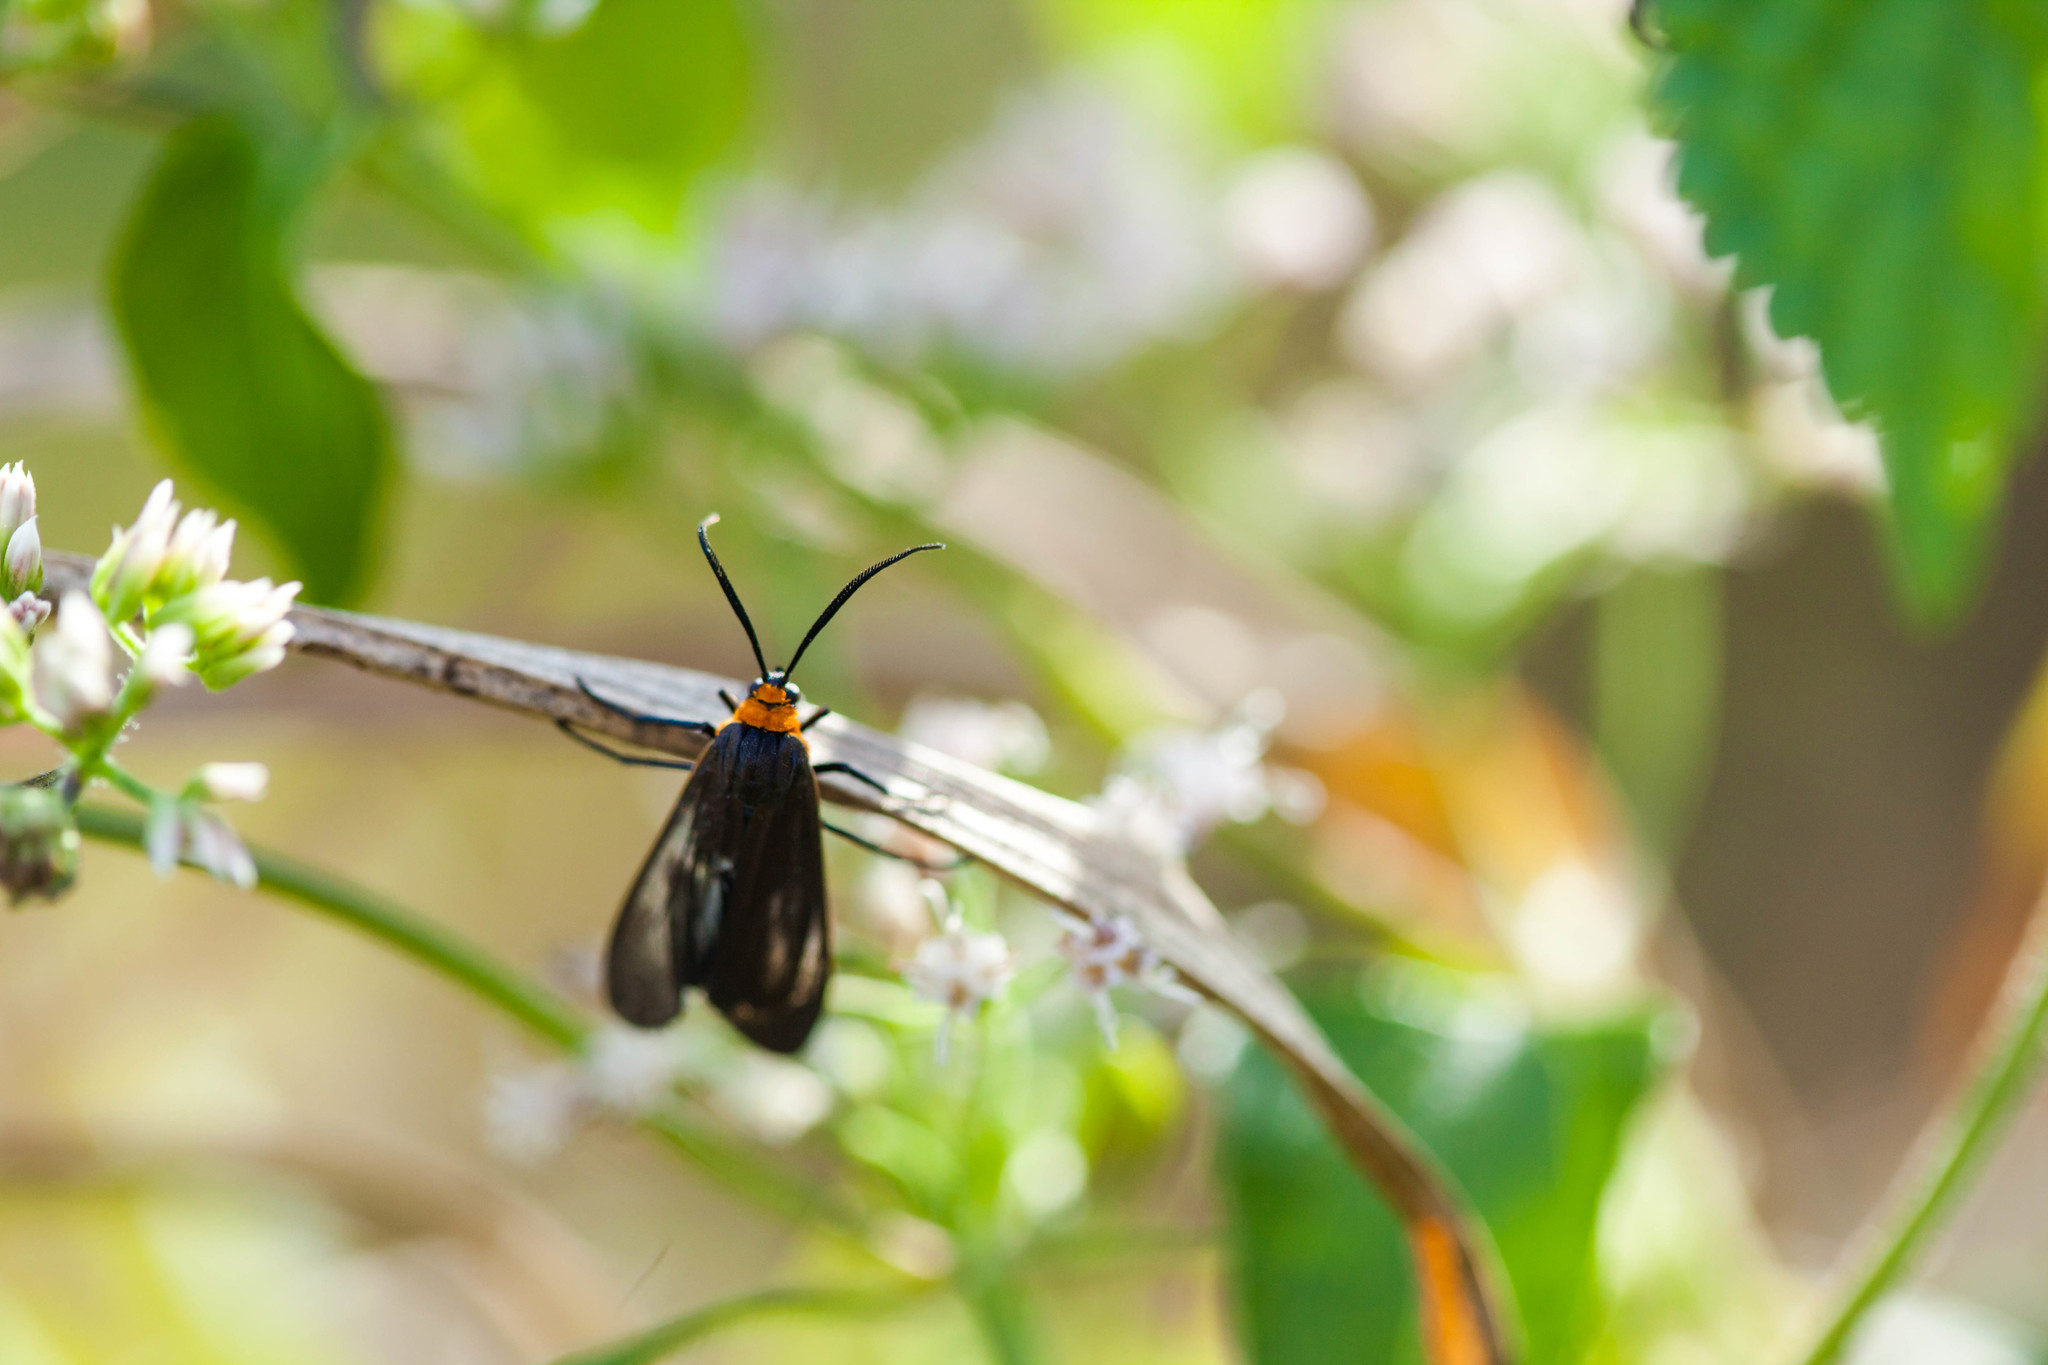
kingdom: Animalia
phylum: Arthropoda
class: Insecta
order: Lepidoptera
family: Erebidae
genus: Cisseps
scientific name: Cisseps fulvicollis
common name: Yellow-collared scape moth
